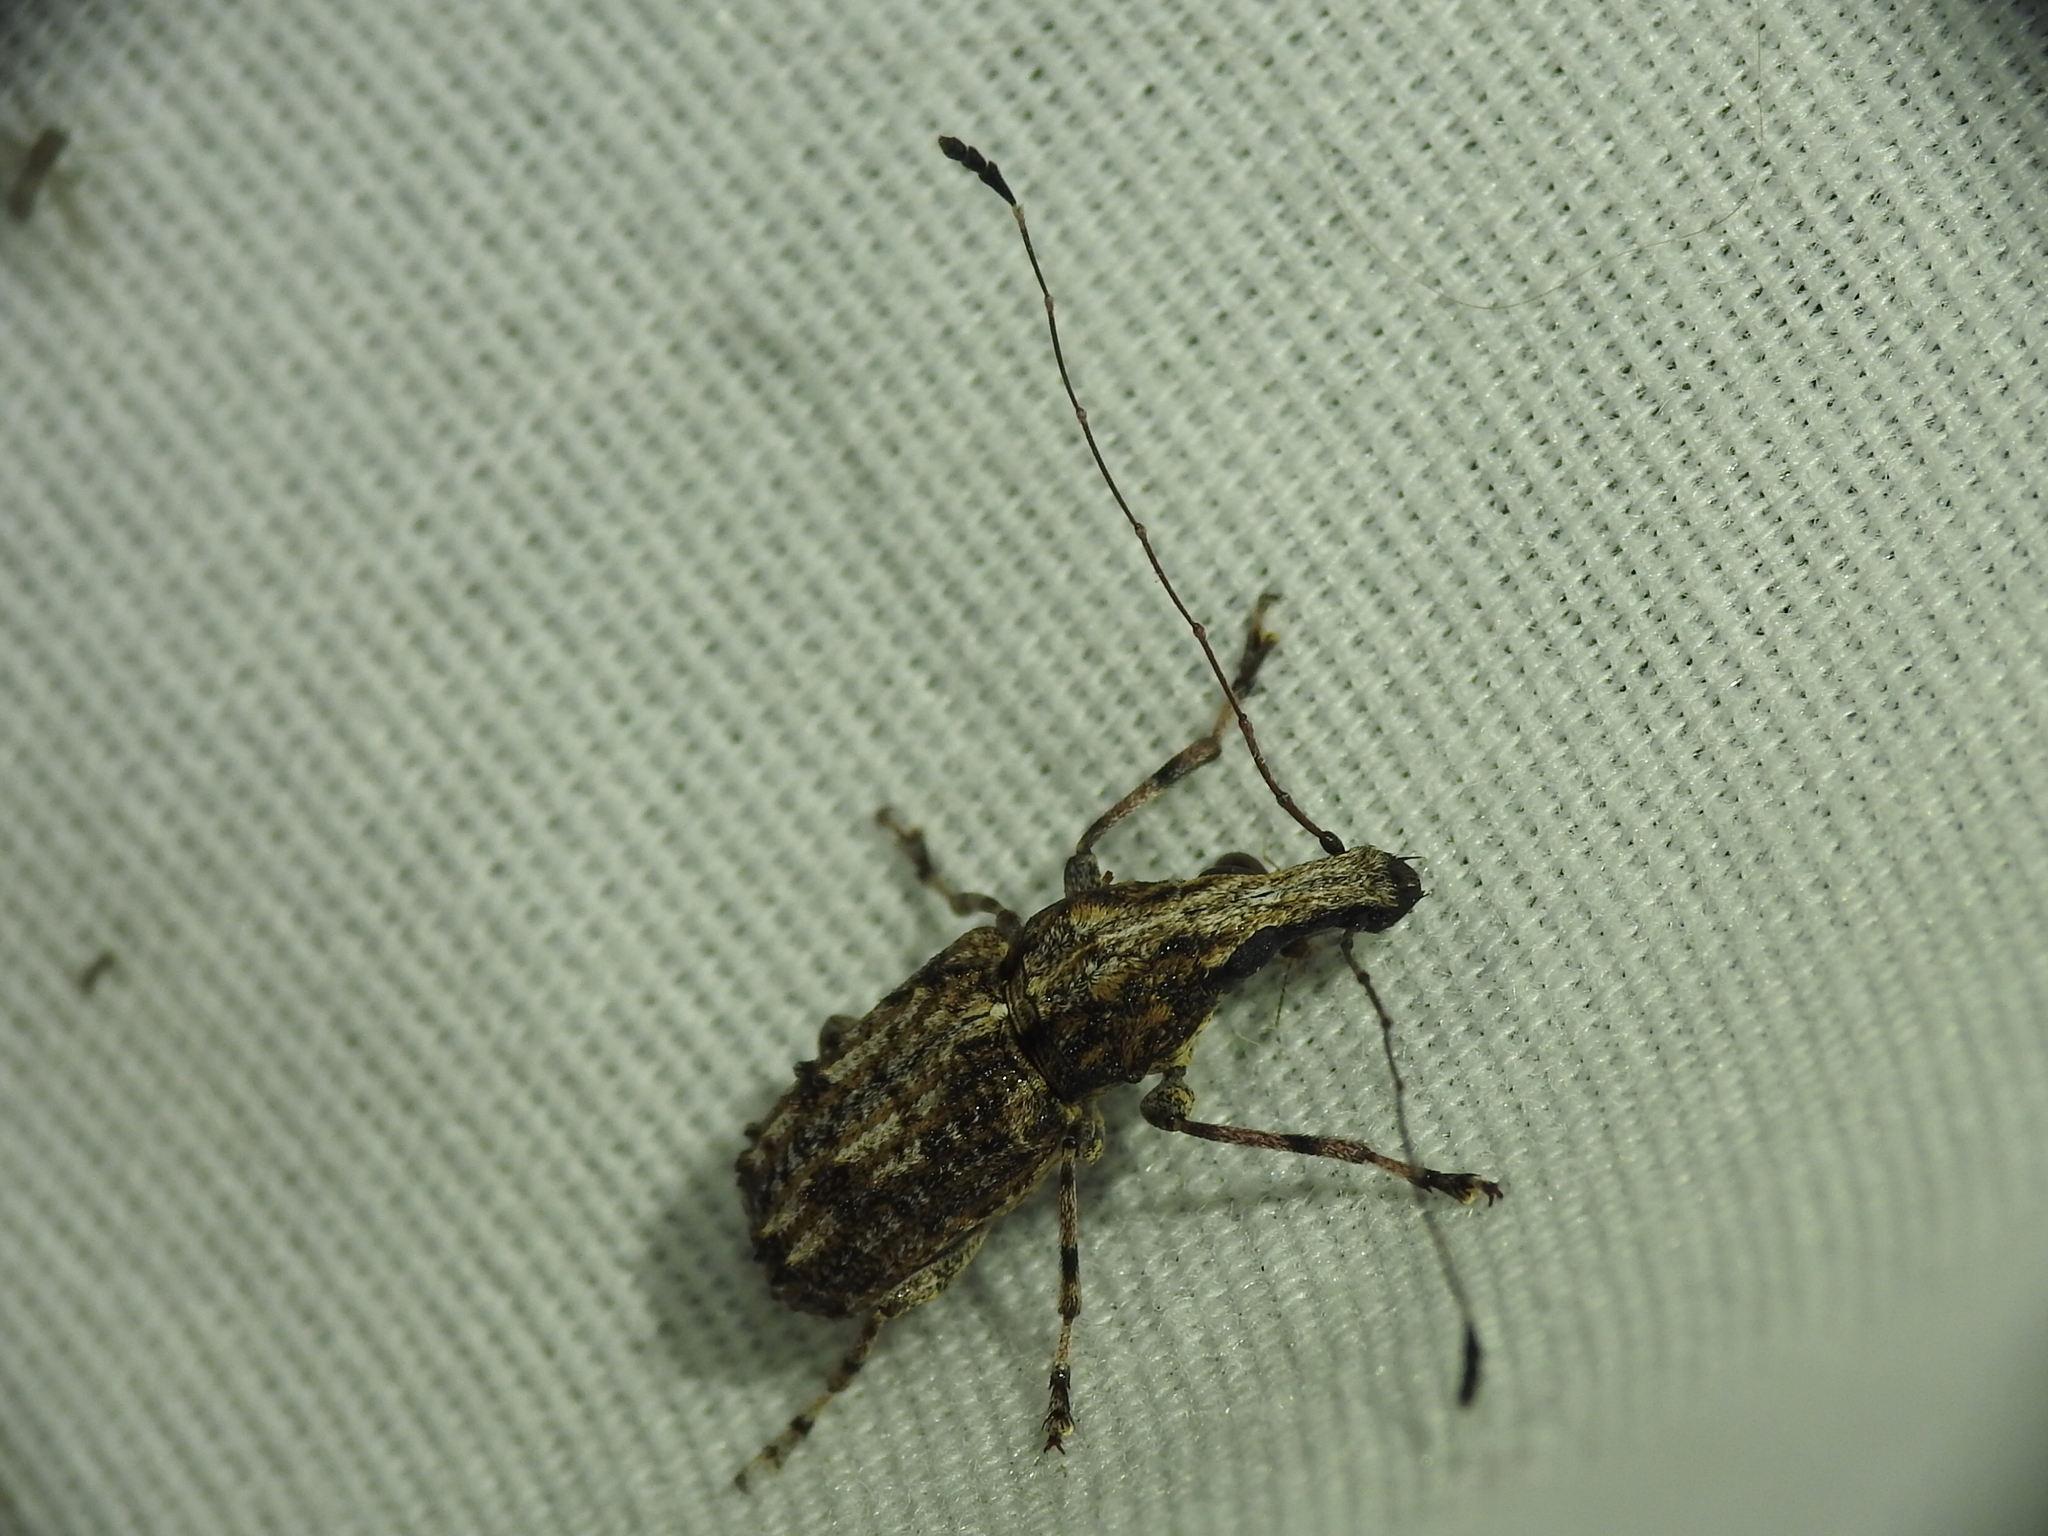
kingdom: Animalia
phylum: Arthropoda
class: Insecta
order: Coleoptera
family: Anthribidae
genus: Meconemus
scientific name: Meconemus infuscatus
